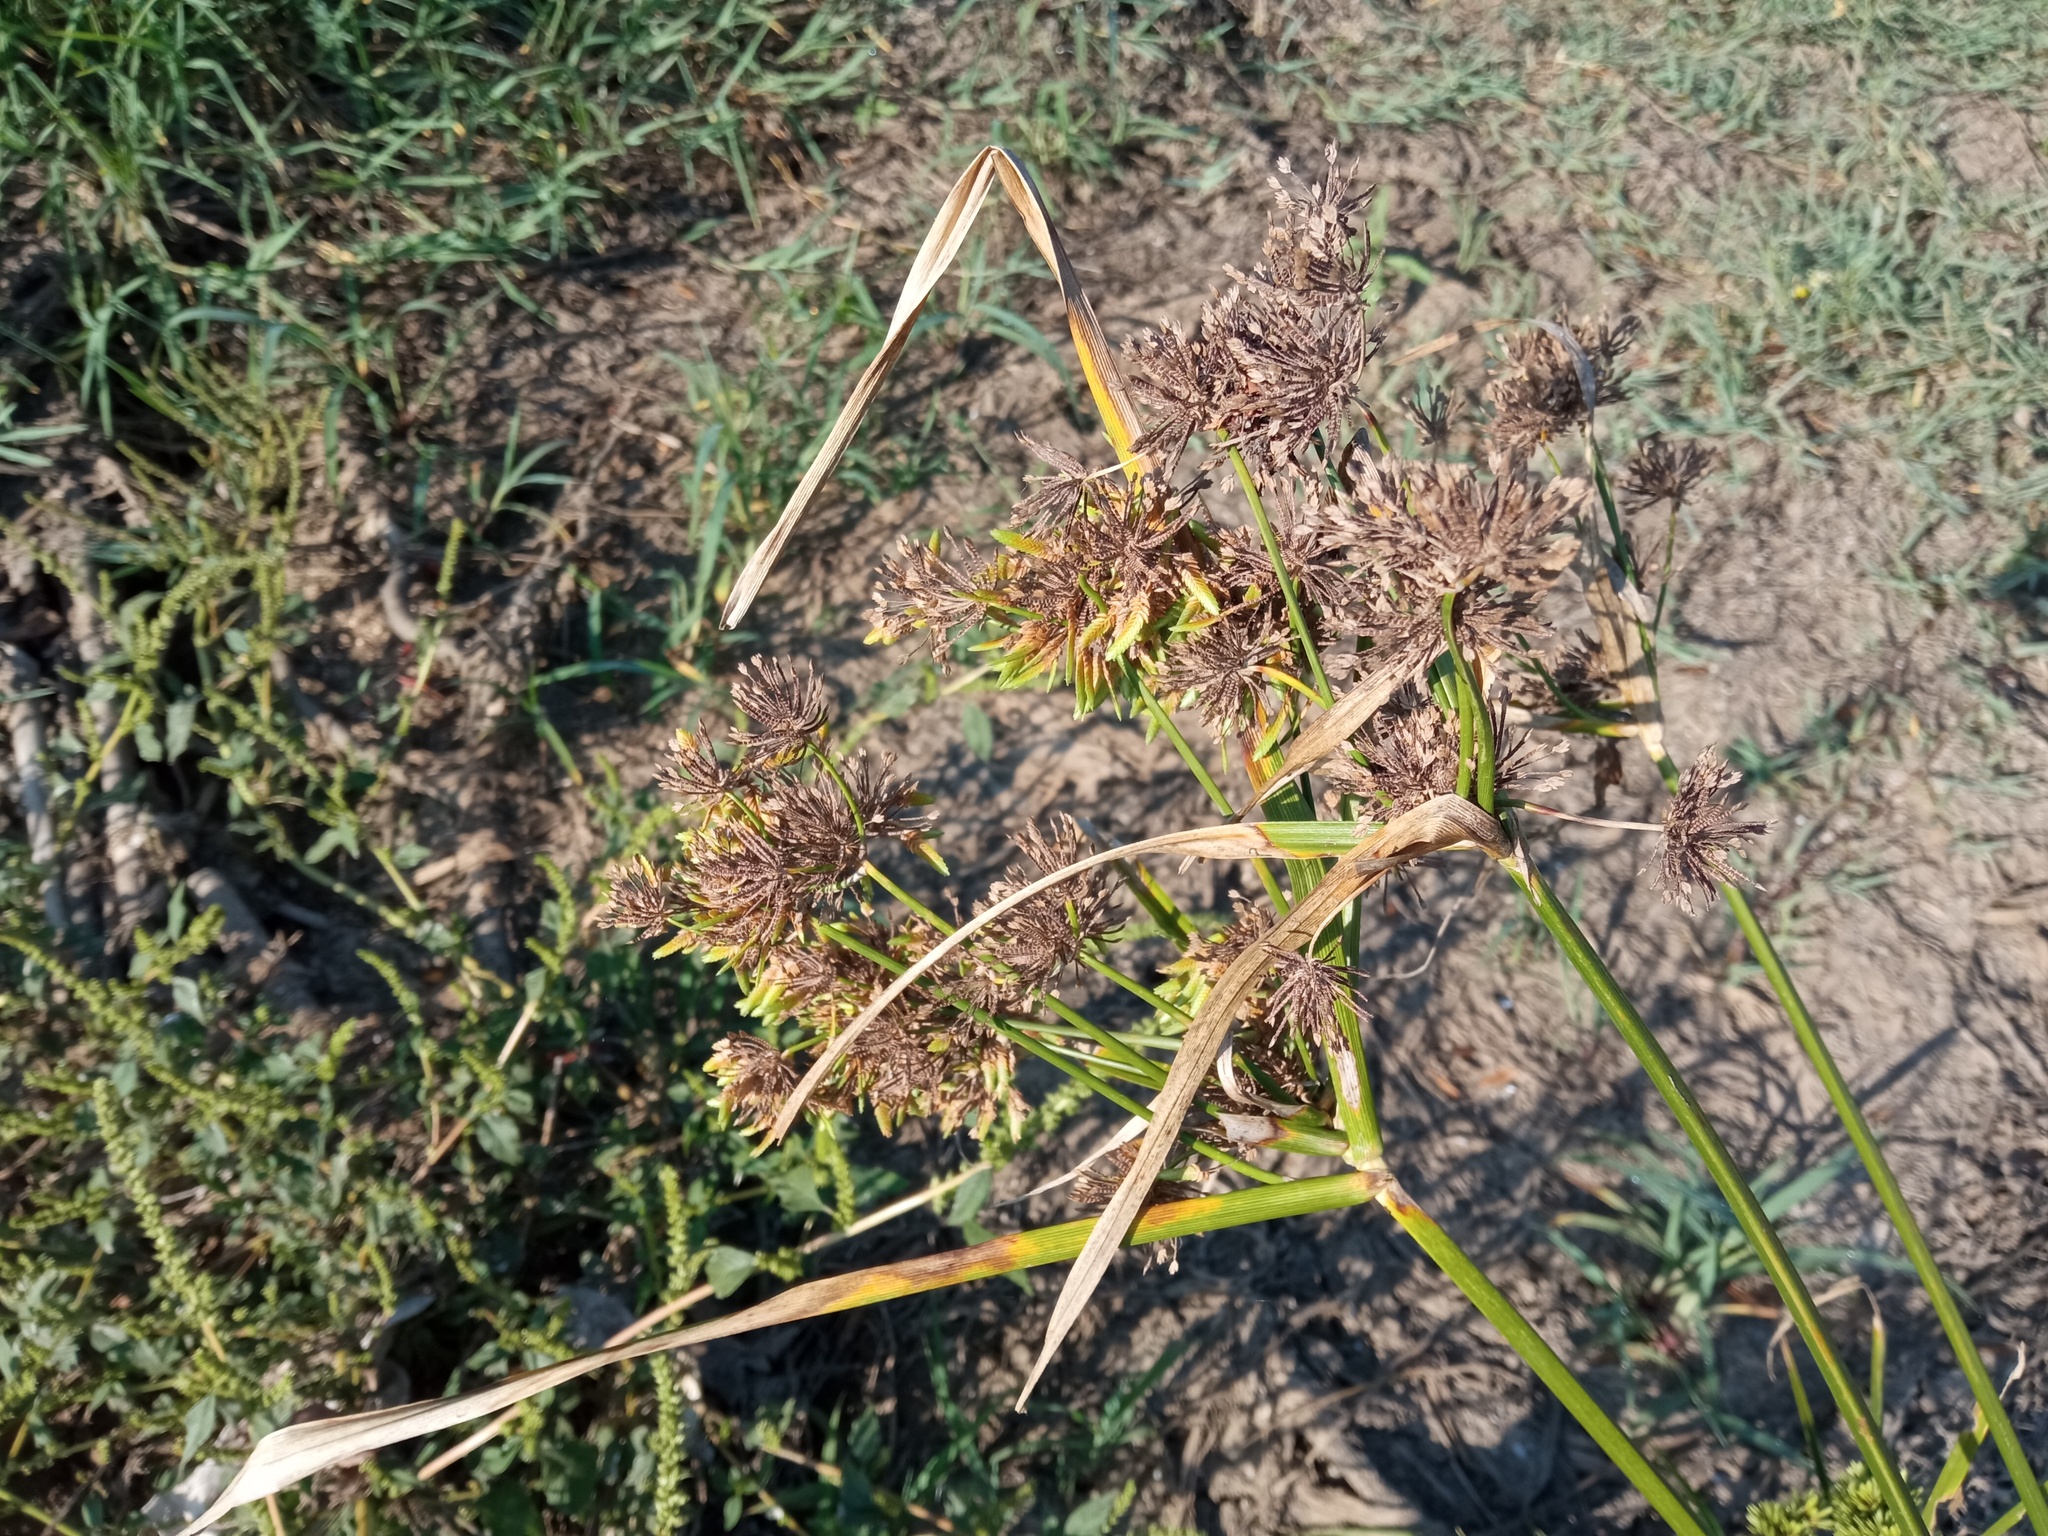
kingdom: Plantae
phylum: Tracheophyta
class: Liliopsida
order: Poales
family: Cyperaceae
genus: Cyperus
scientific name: Cyperus eragrostis
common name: Tall flatsedge
